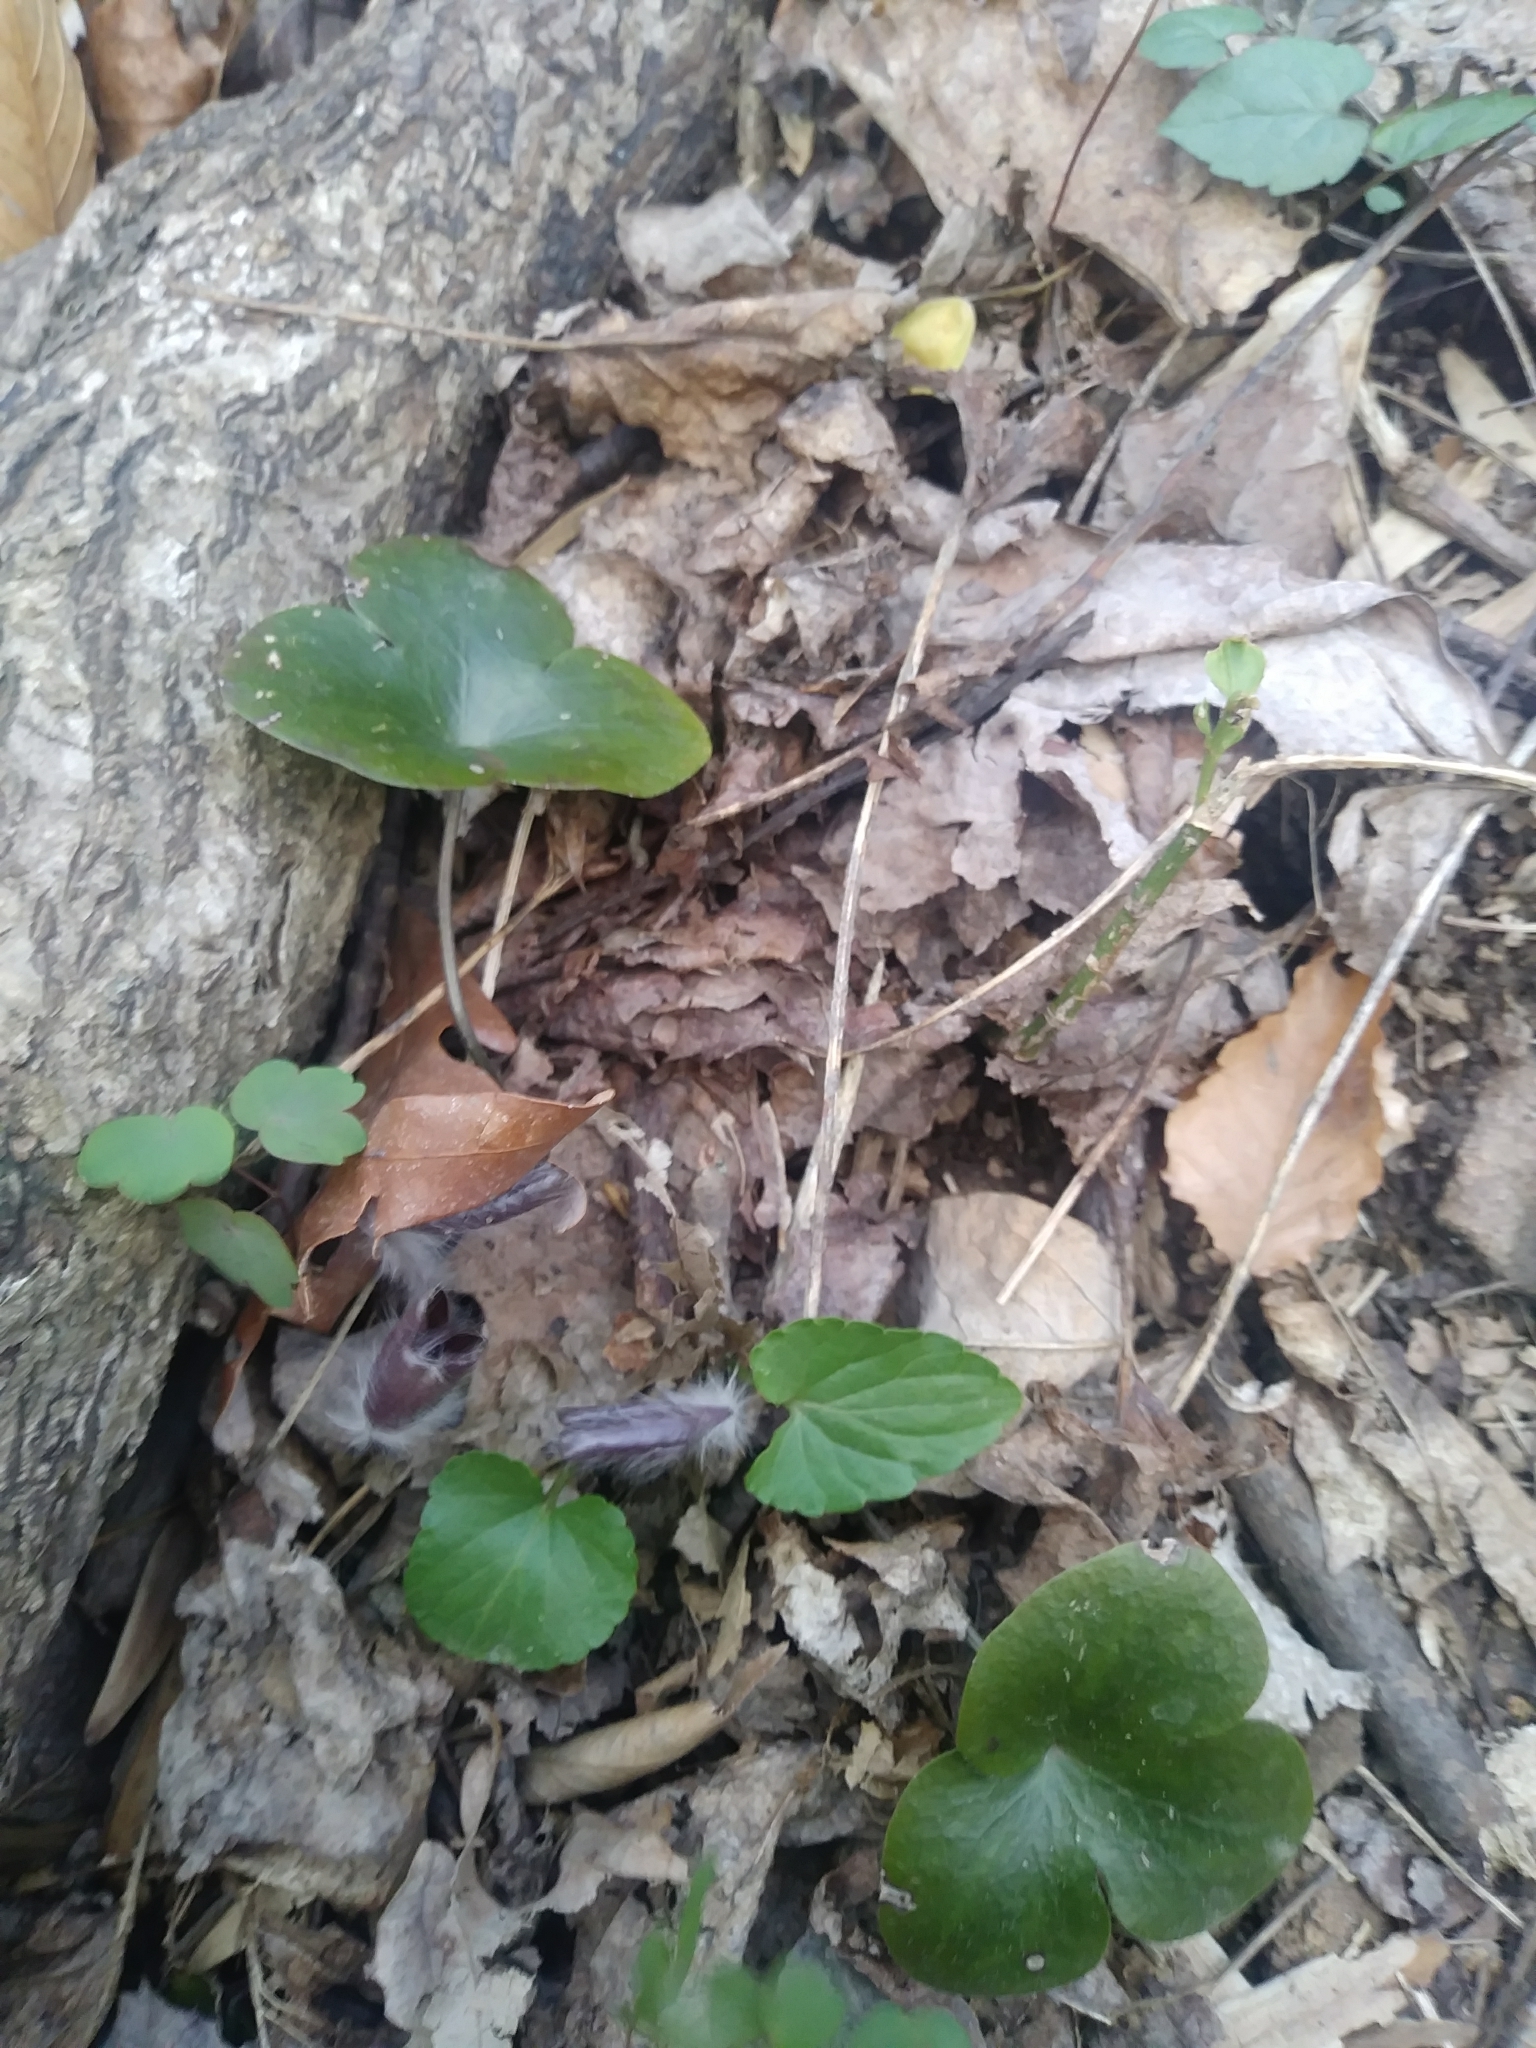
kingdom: Plantae
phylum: Tracheophyta
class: Magnoliopsida
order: Ranunculales
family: Ranunculaceae
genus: Hepatica
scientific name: Hepatica americana
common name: American hepatica
